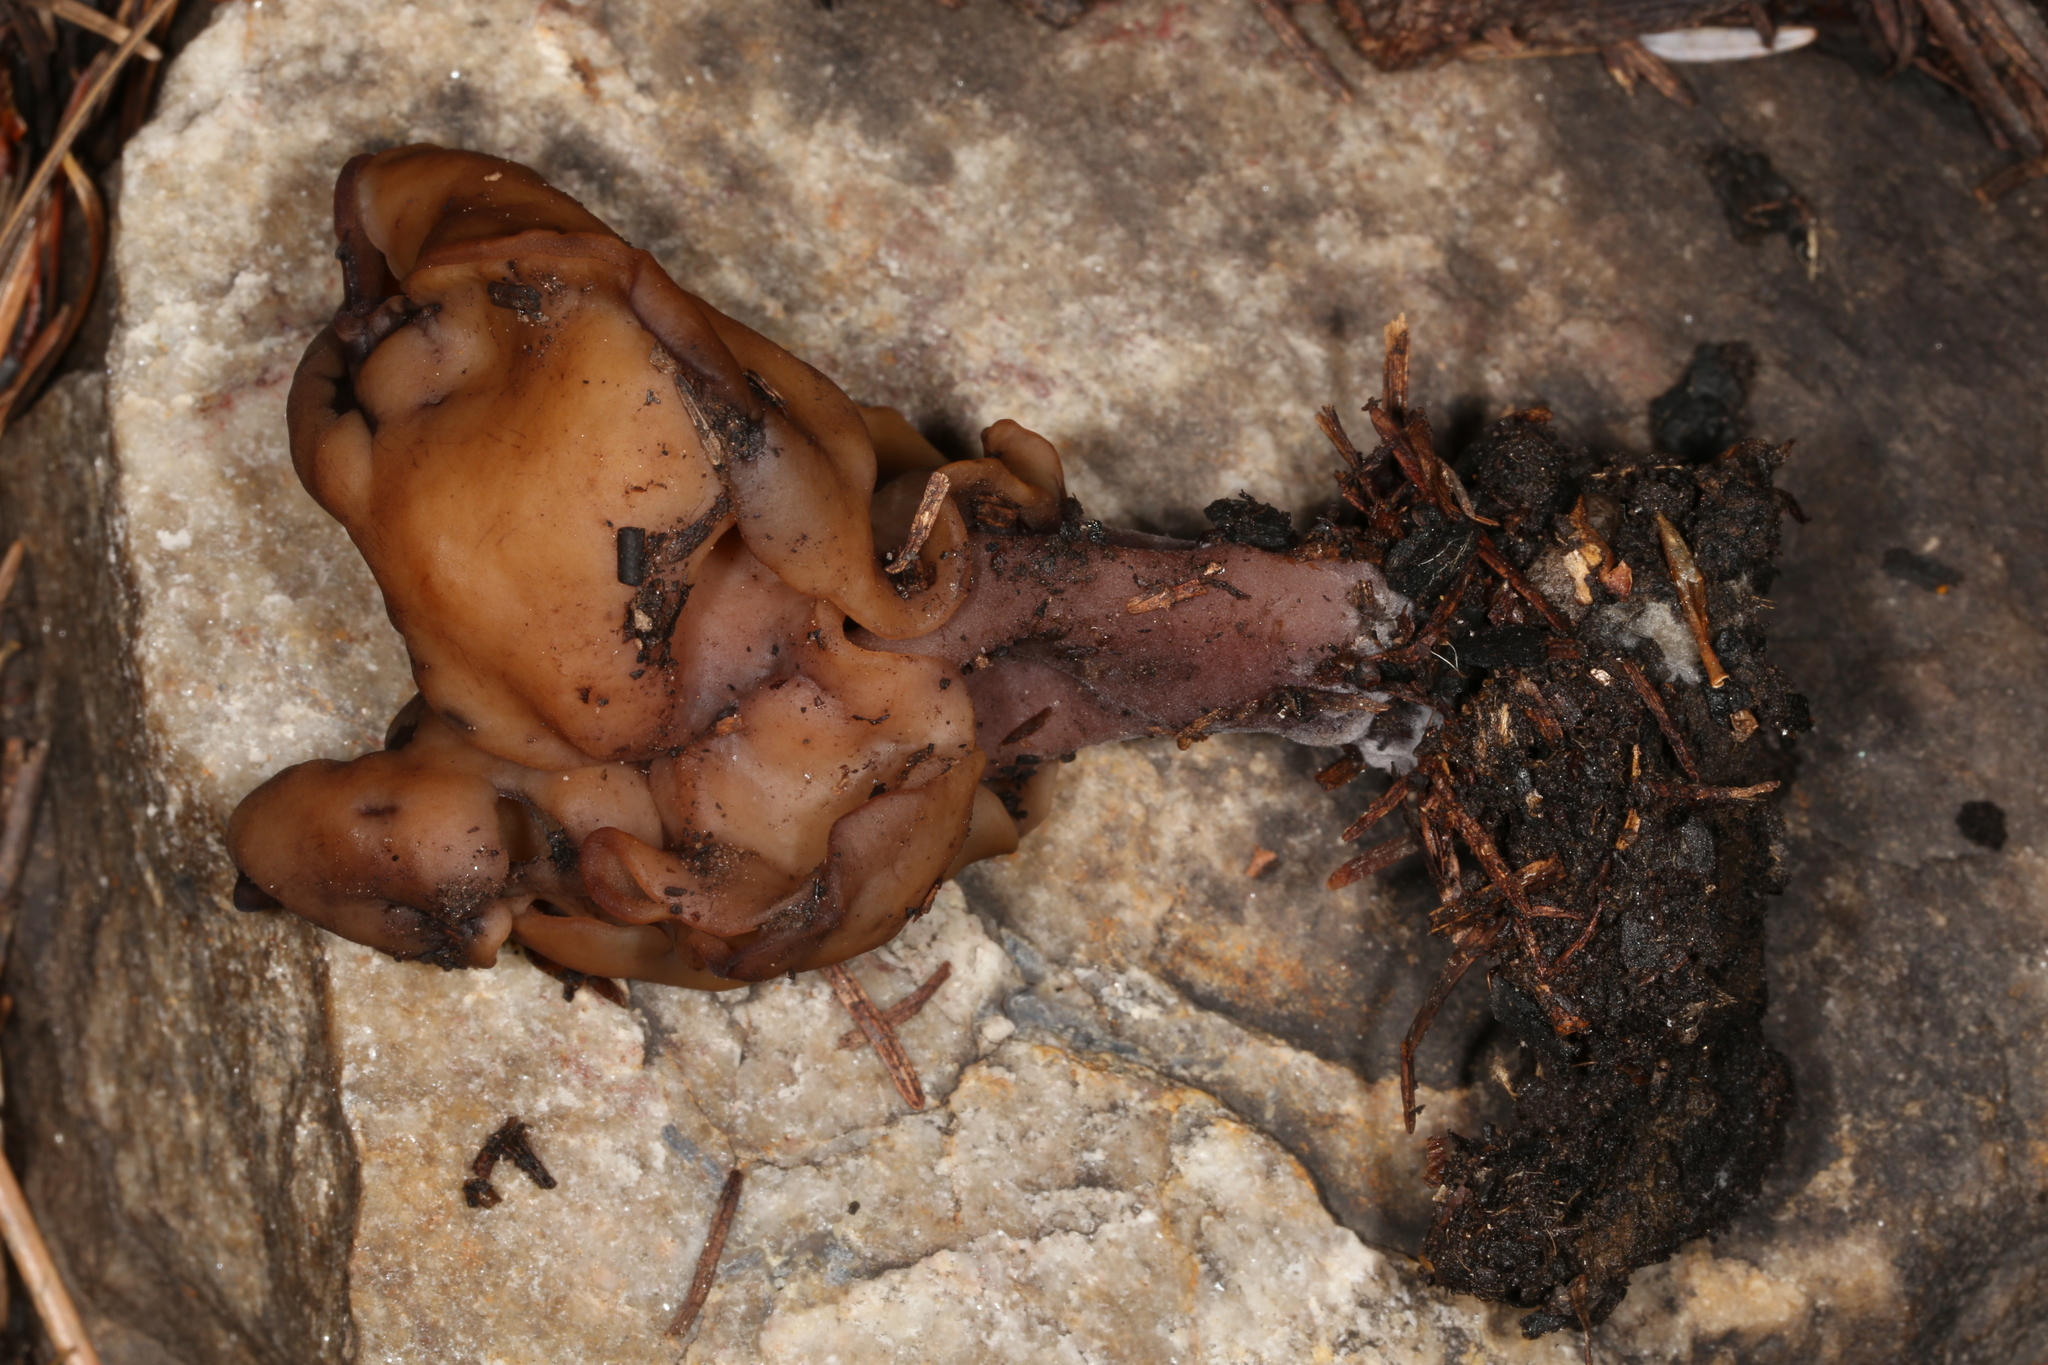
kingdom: Fungi
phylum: Ascomycota
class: Pezizomycetes
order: Pezizales
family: Discinaceae
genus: Gyromitra
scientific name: Gyromitra infula
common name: Pouched false morel
